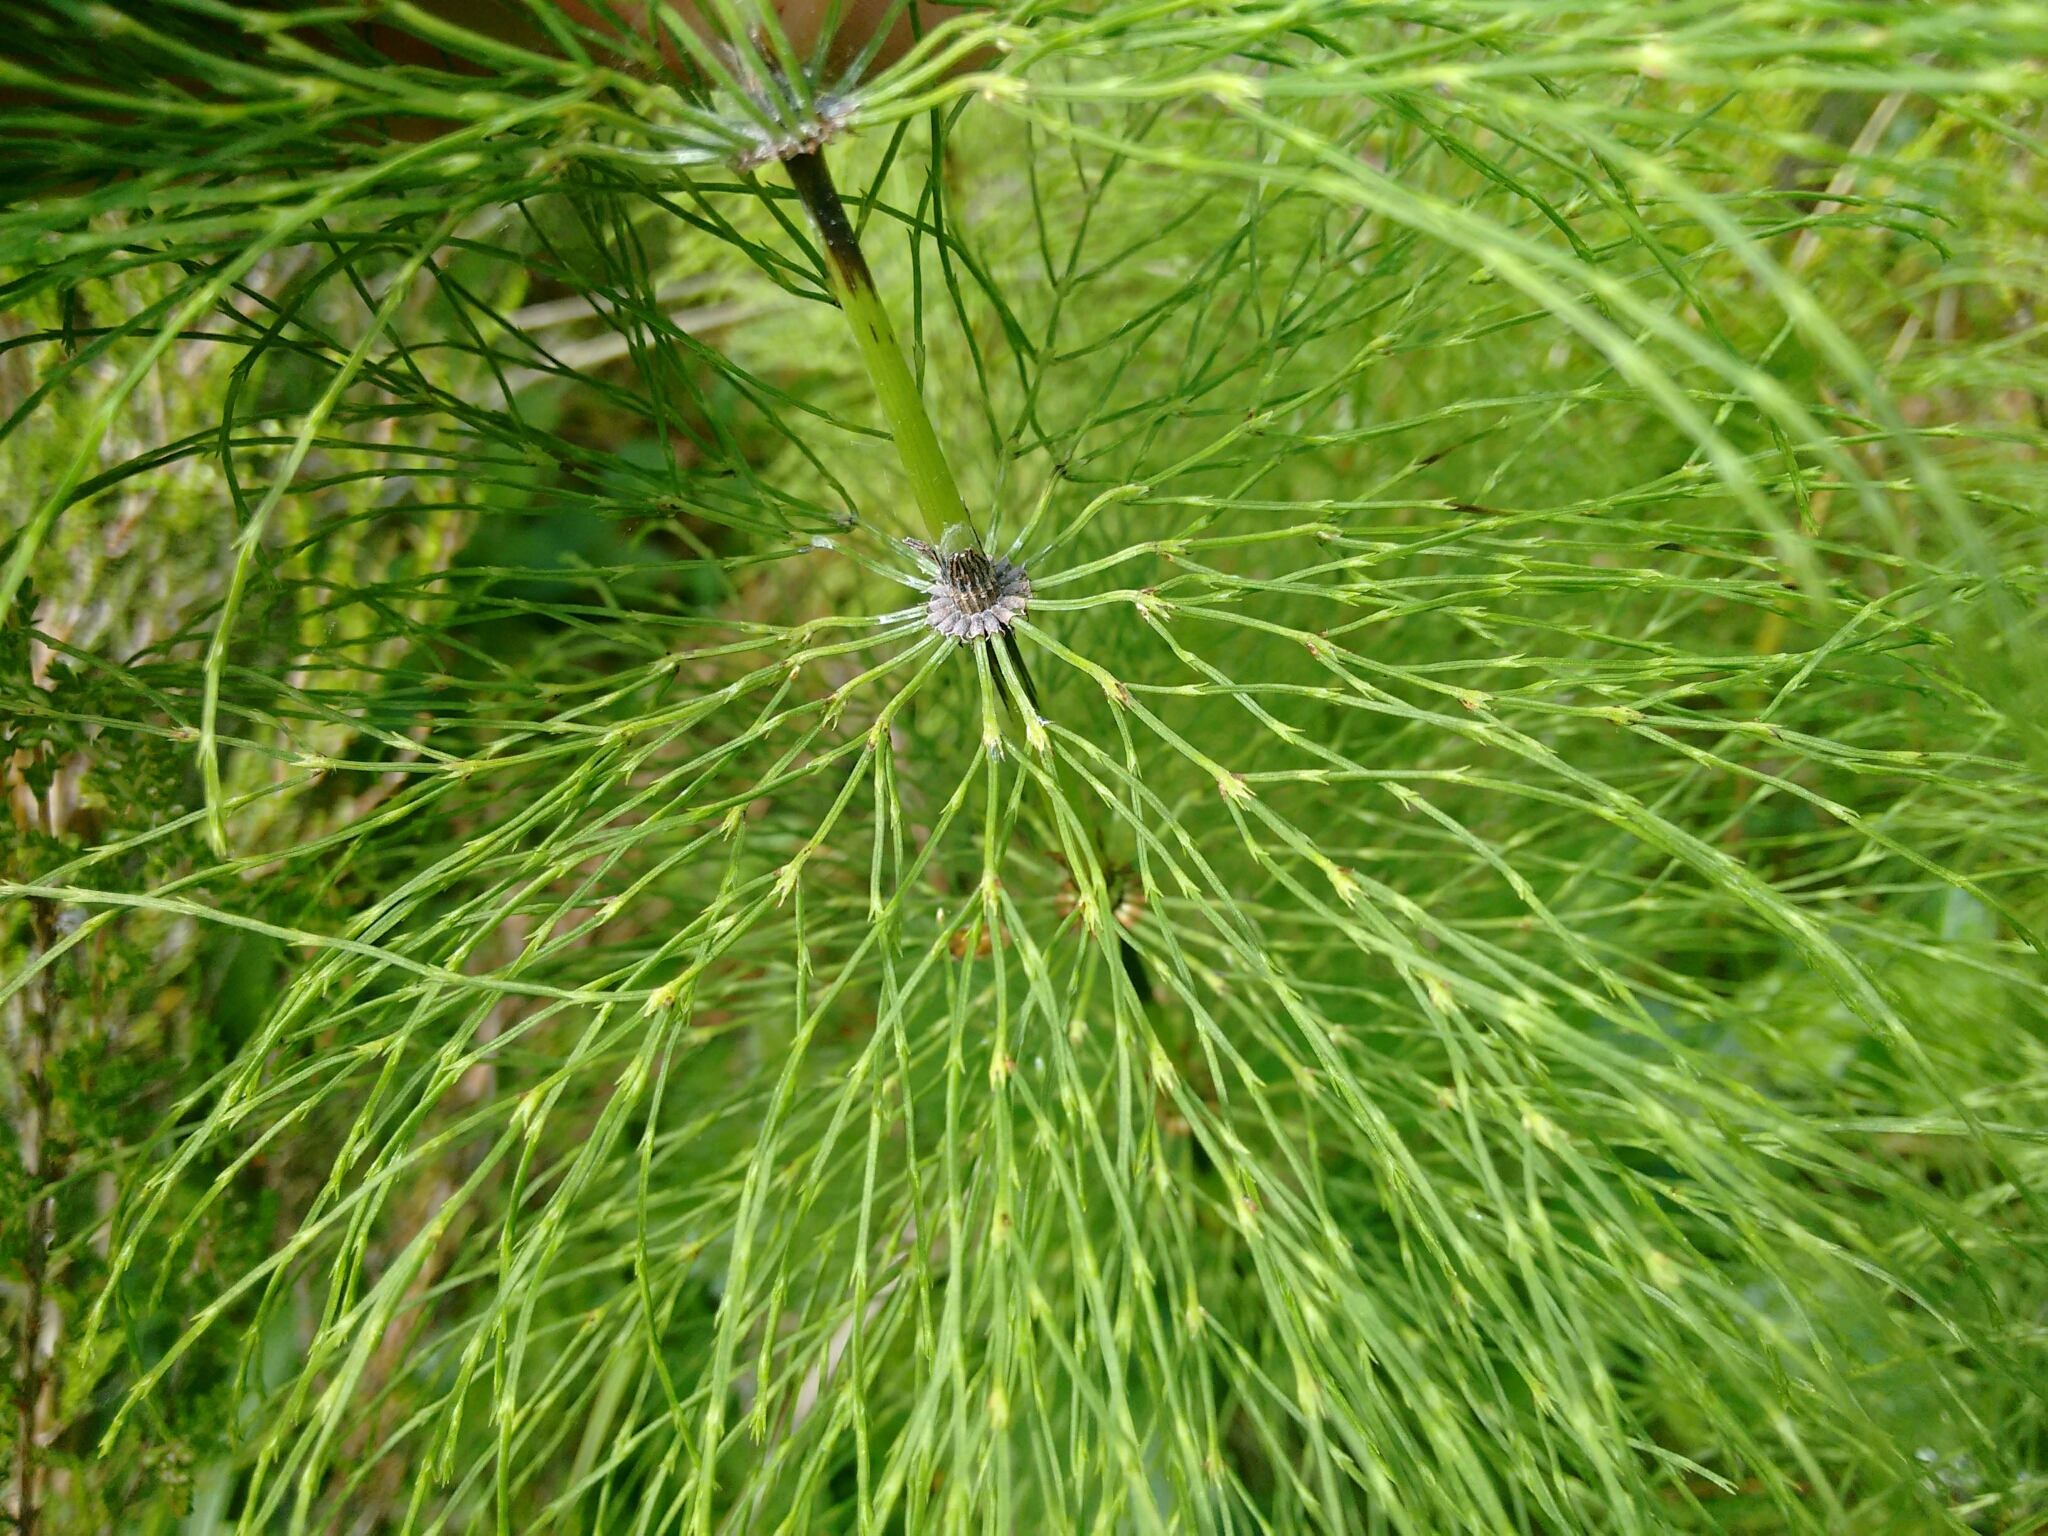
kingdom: Plantae
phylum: Tracheophyta
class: Polypodiopsida
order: Equisetales
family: Equisetaceae
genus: Equisetum
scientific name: Equisetum sylvaticum
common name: Wood horsetail
